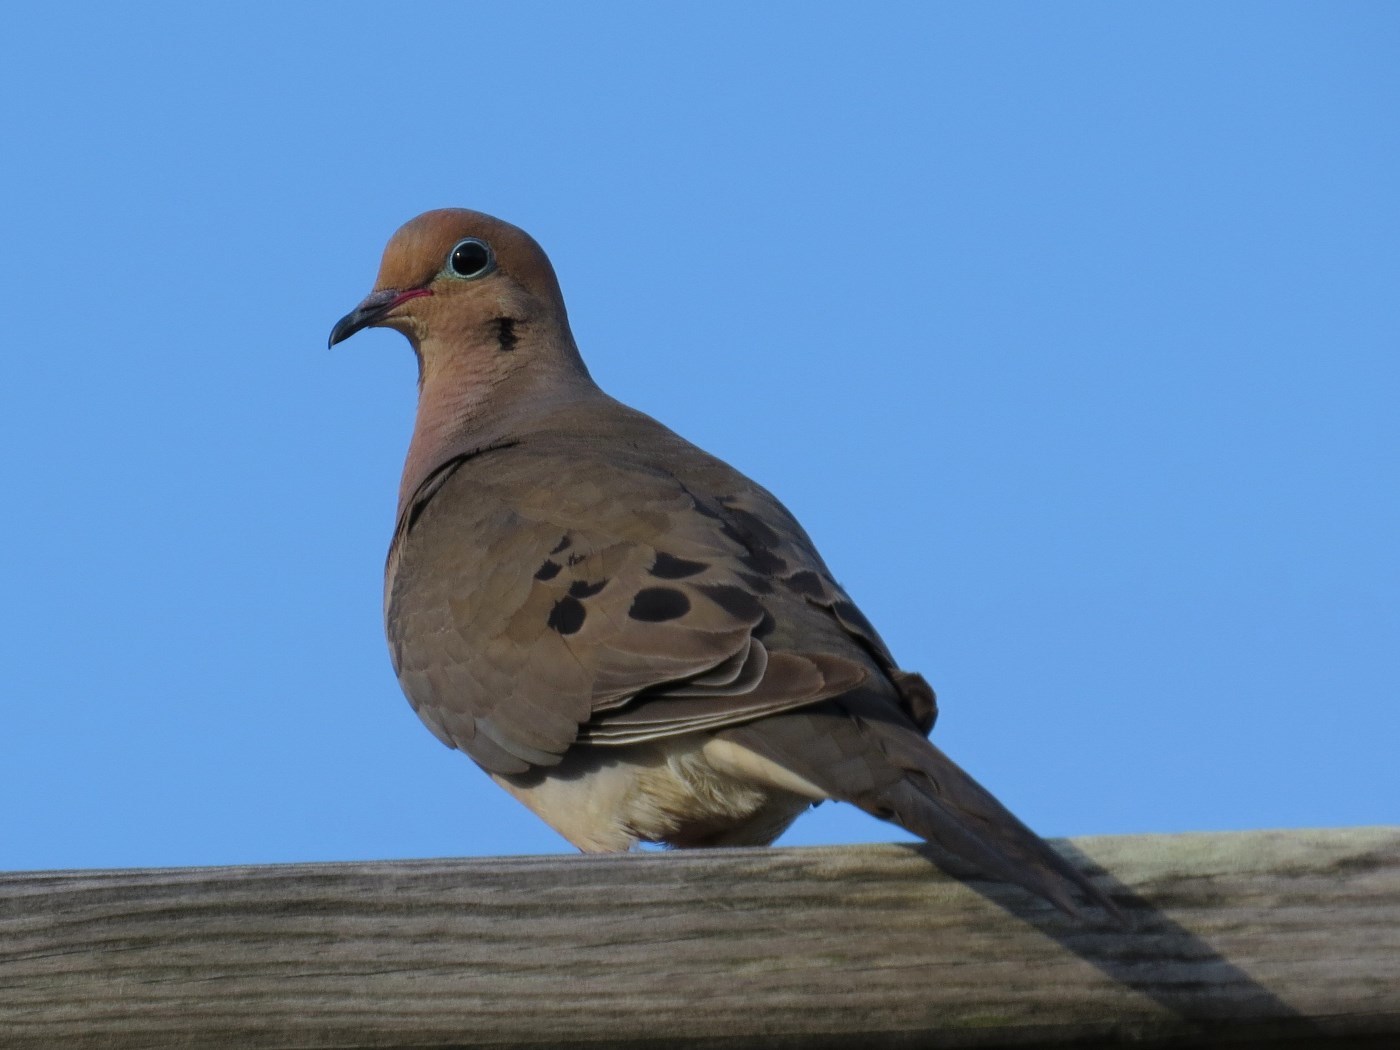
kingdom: Animalia
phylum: Chordata
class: Aves
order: Columbiformes
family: Columbidae
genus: Zenaida
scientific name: Zenaida macroura
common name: Mourning dove
